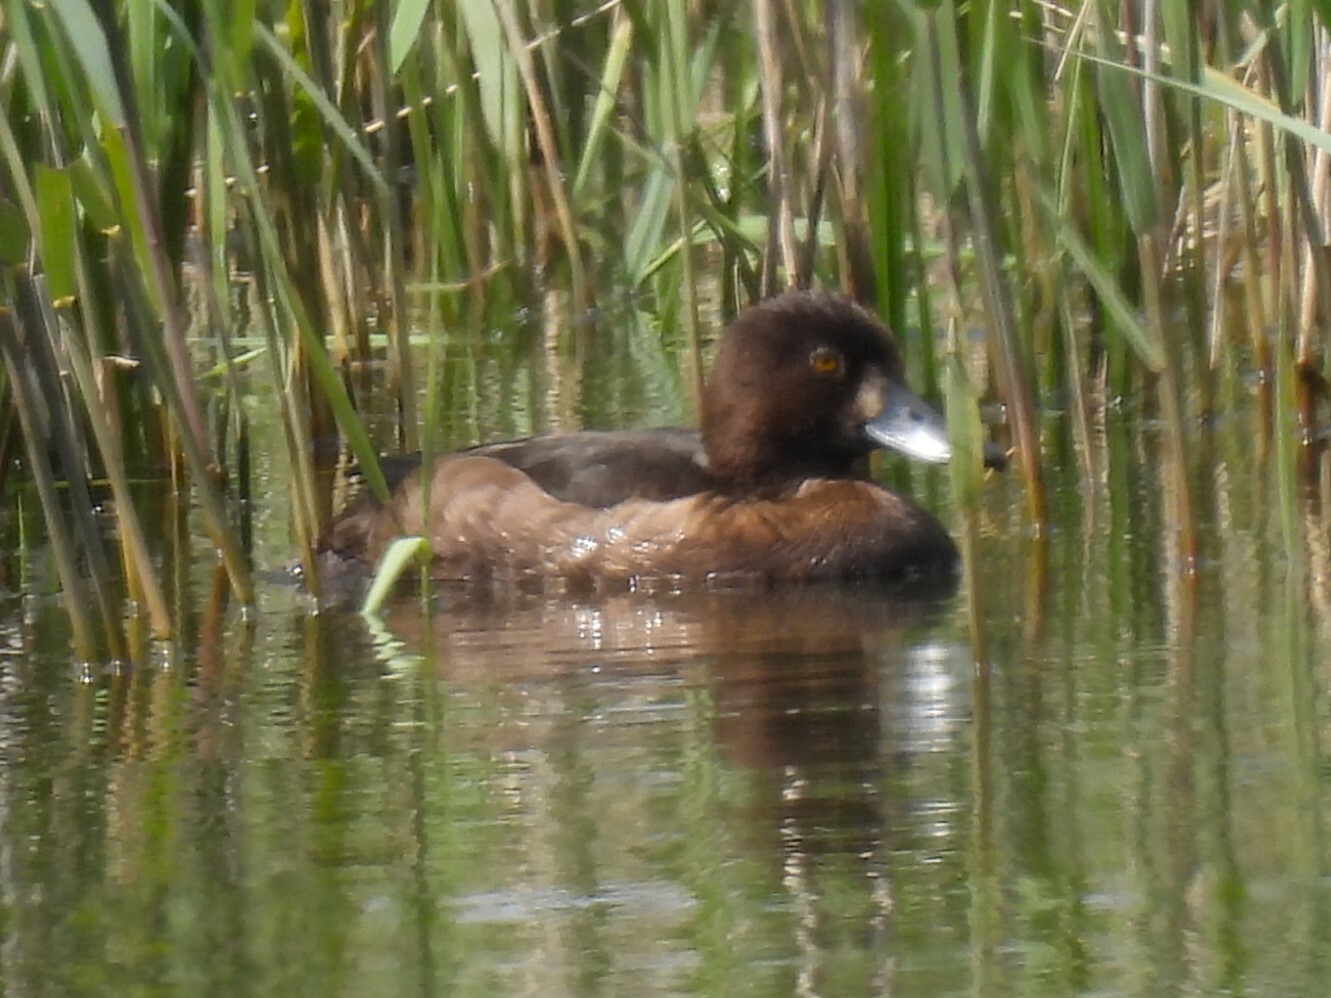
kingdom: Animalia
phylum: Chordata
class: Aves
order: Anseriformes
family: Anatidae
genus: Aythya
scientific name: Aythya fuligula
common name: Tufted duck
